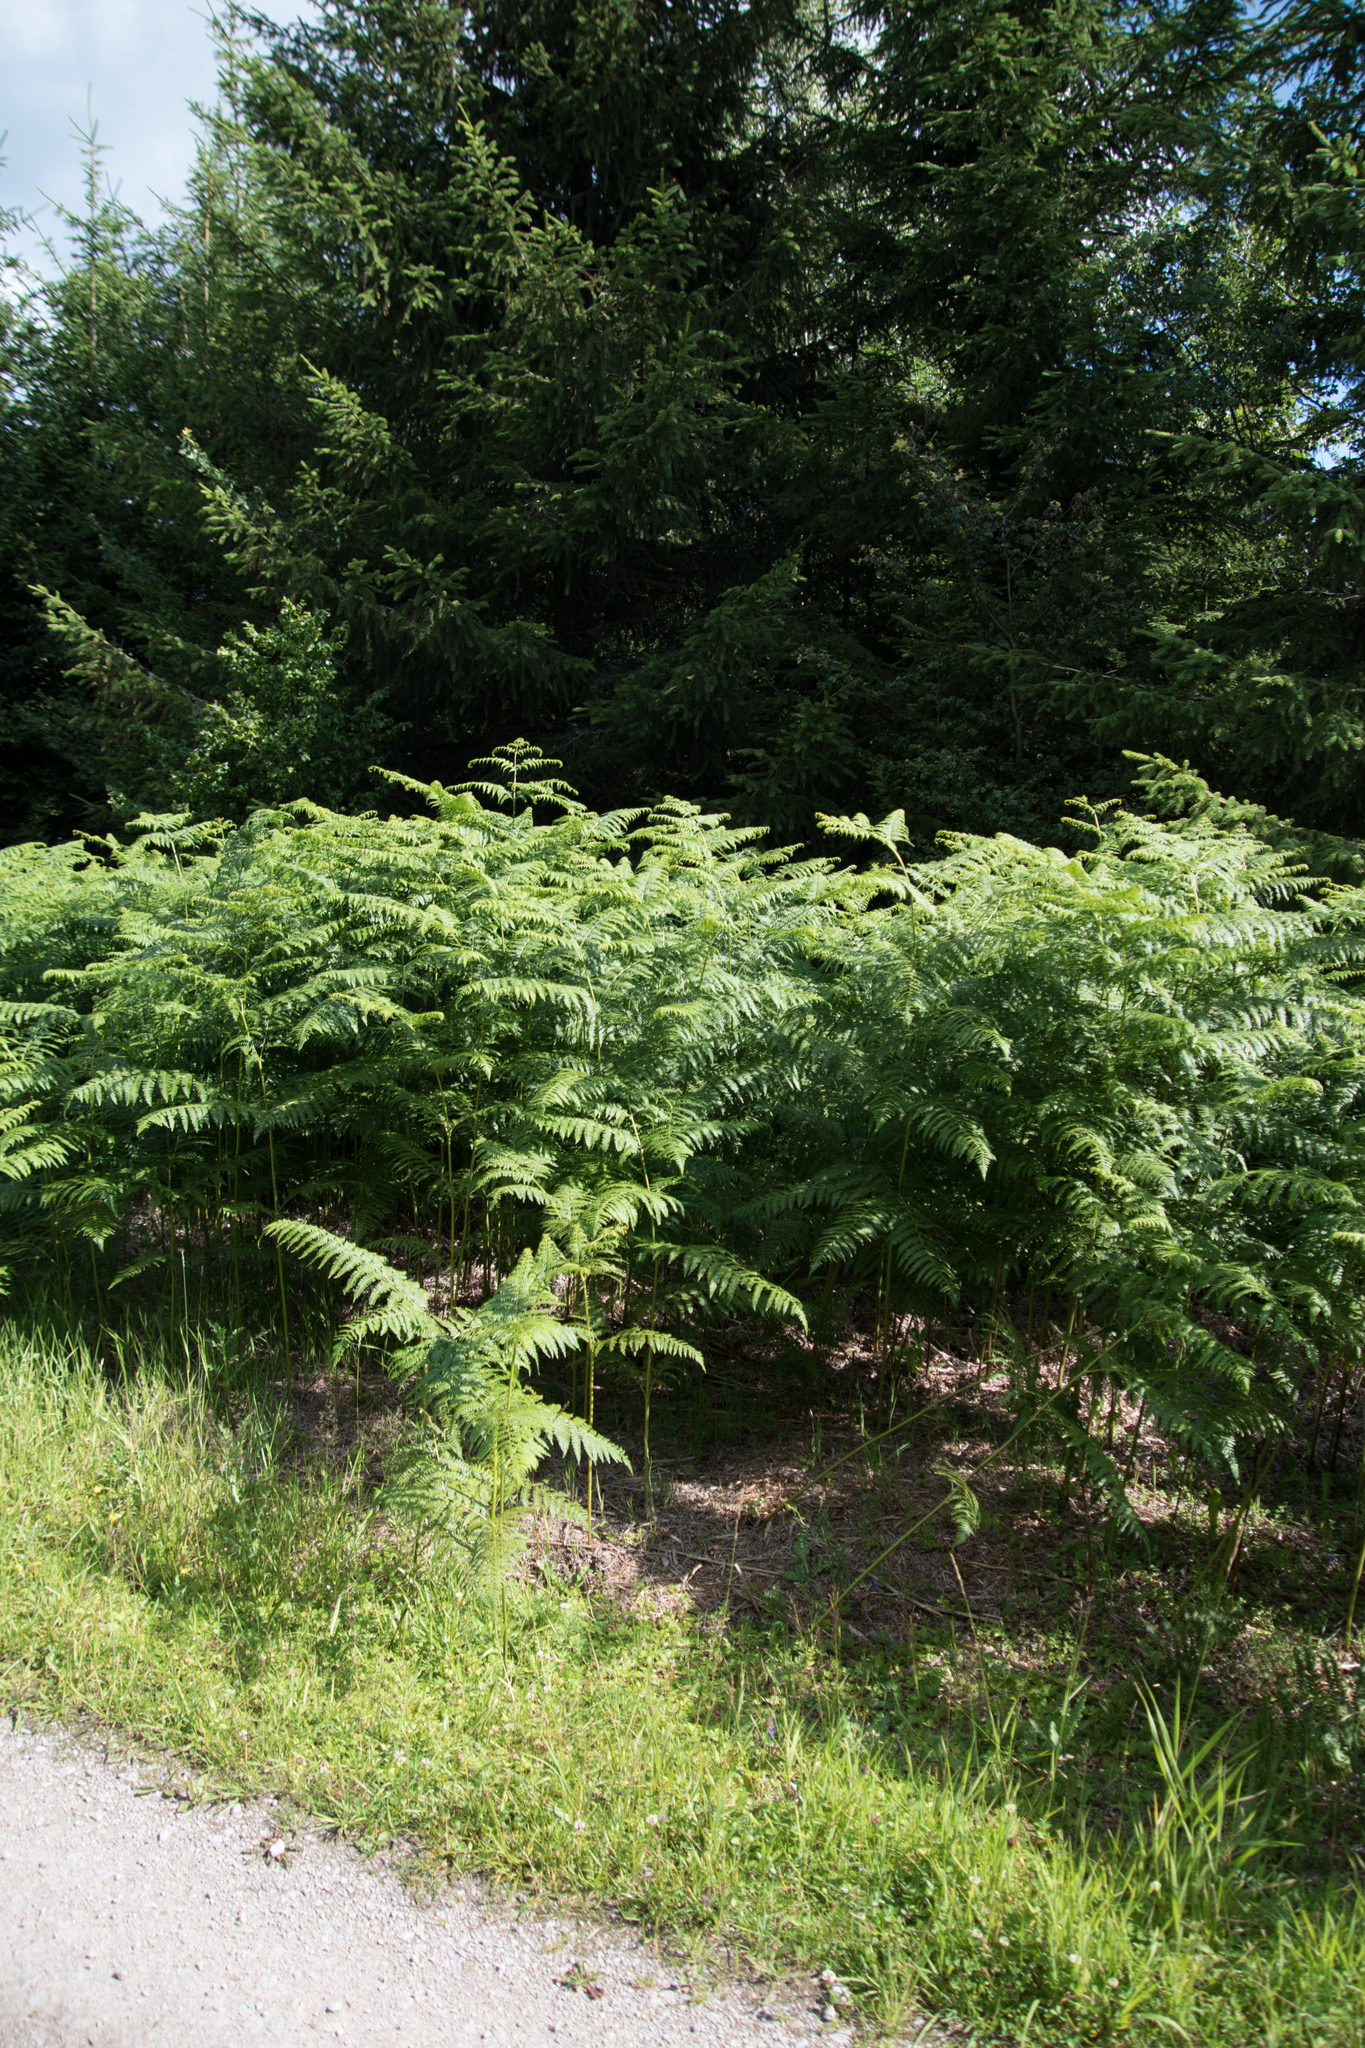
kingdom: Plantae
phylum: Tracheophyta
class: Polypodiopsida
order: Polypodiales
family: Dennstaedtiaceae
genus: Pteridium
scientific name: Pteridium aquilinum
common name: Bracken
